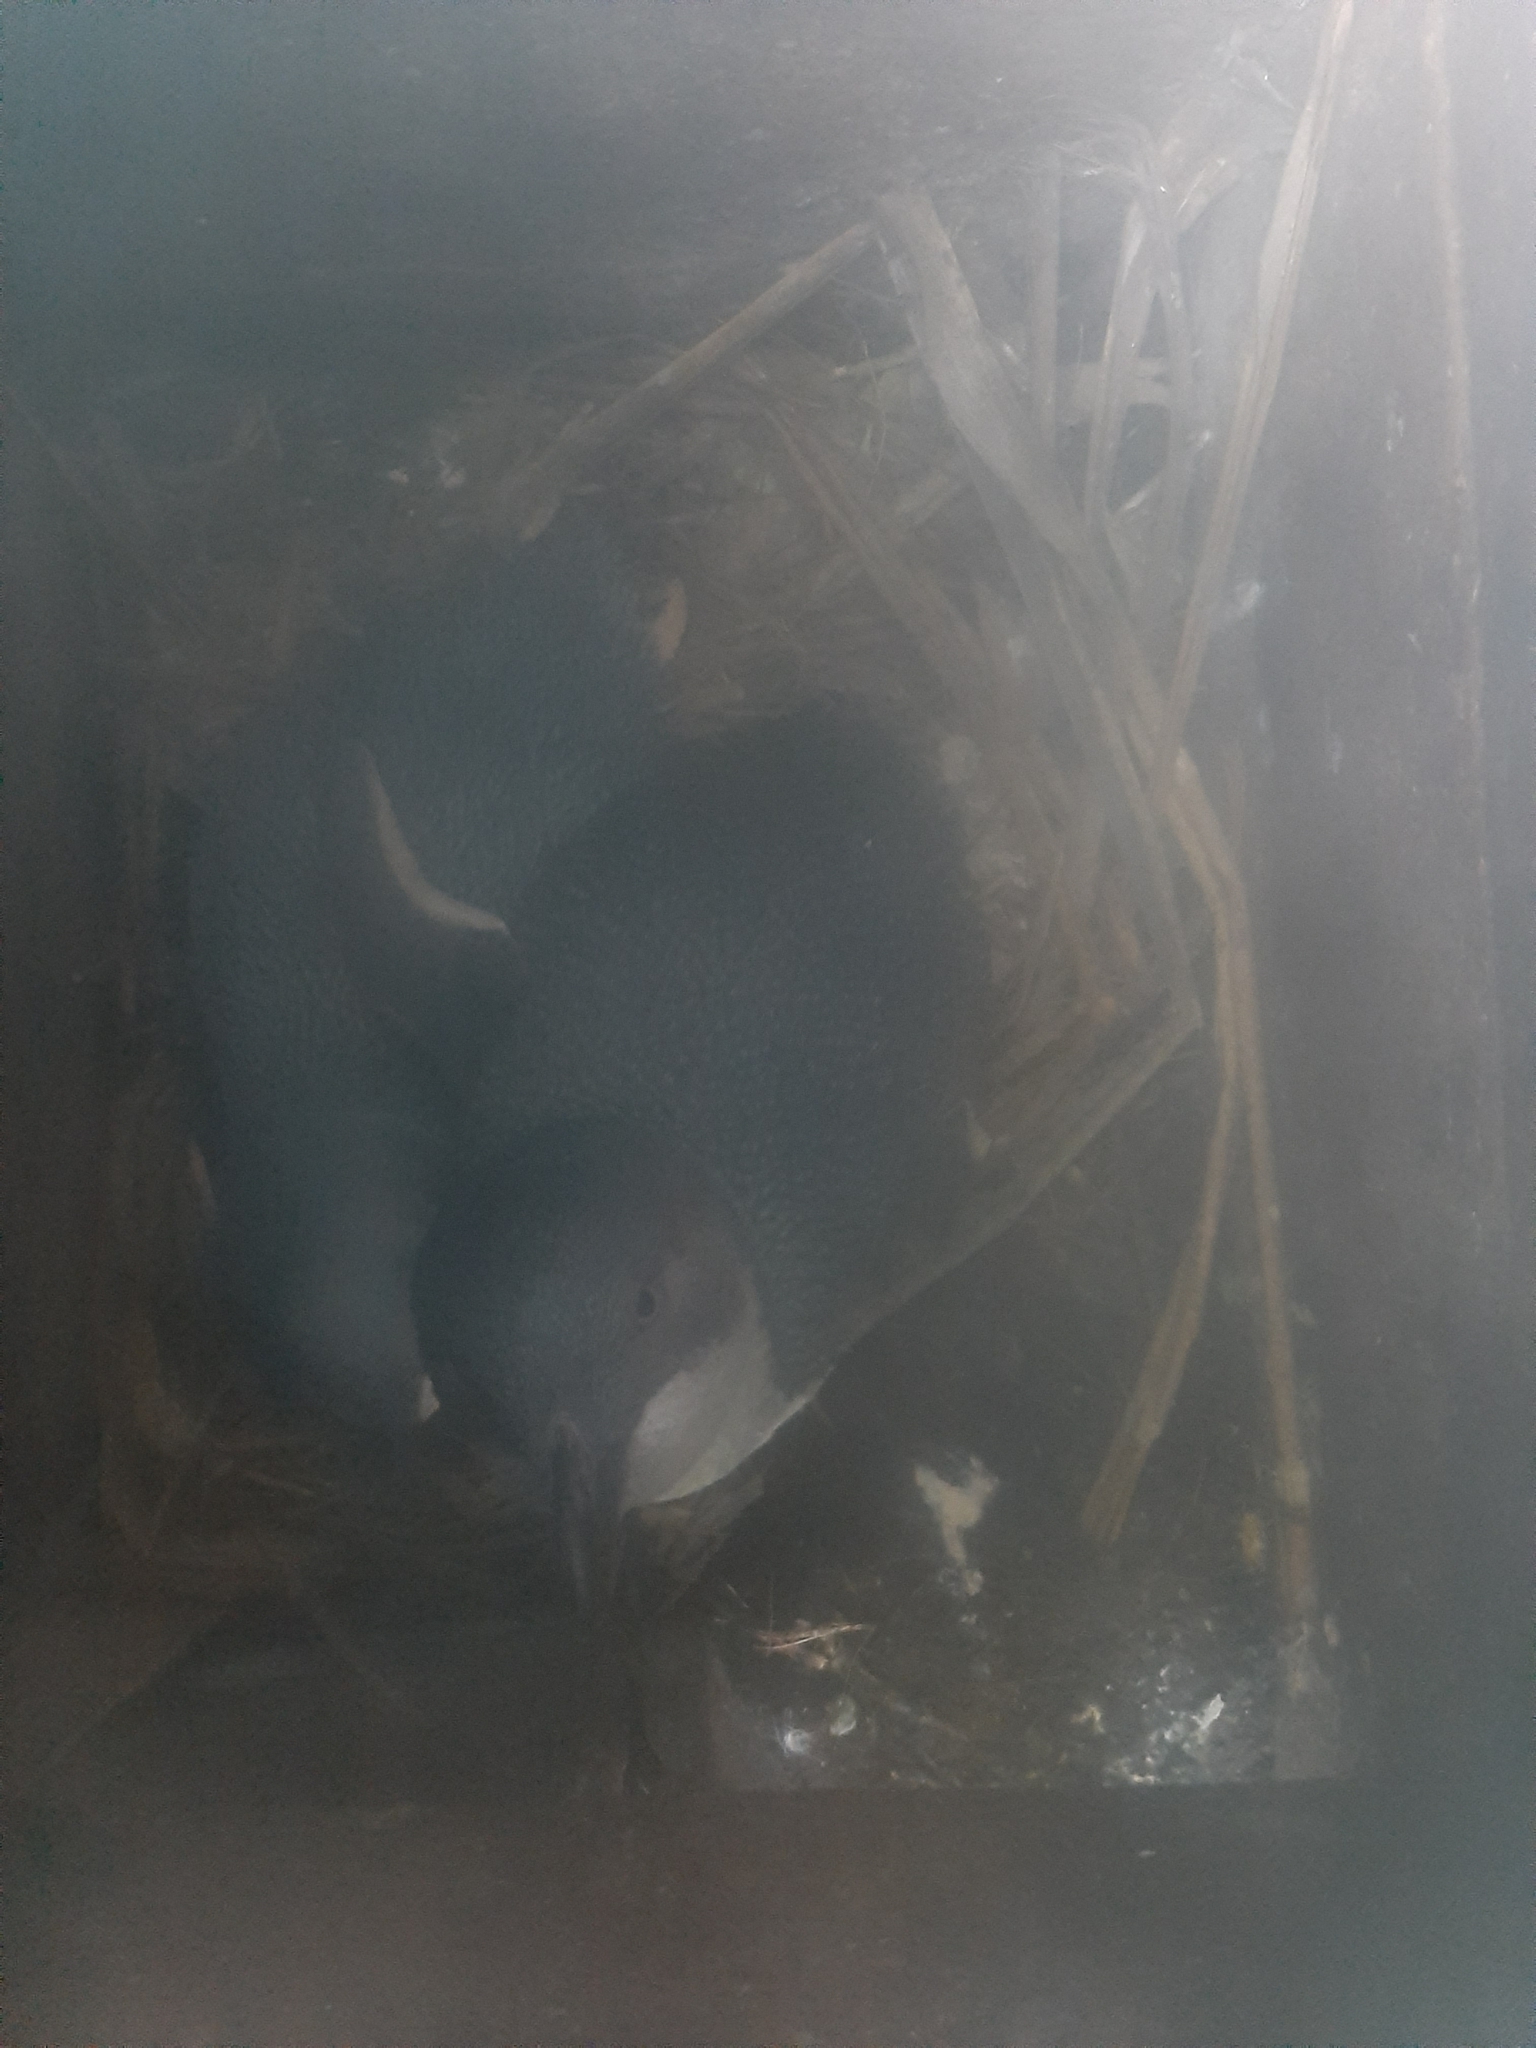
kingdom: Animalia
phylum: Chordata
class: Aves
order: Sphenisciformes
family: Spheniscidae
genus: Eudyptula
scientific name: Eudyptula minor
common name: Little penguin
